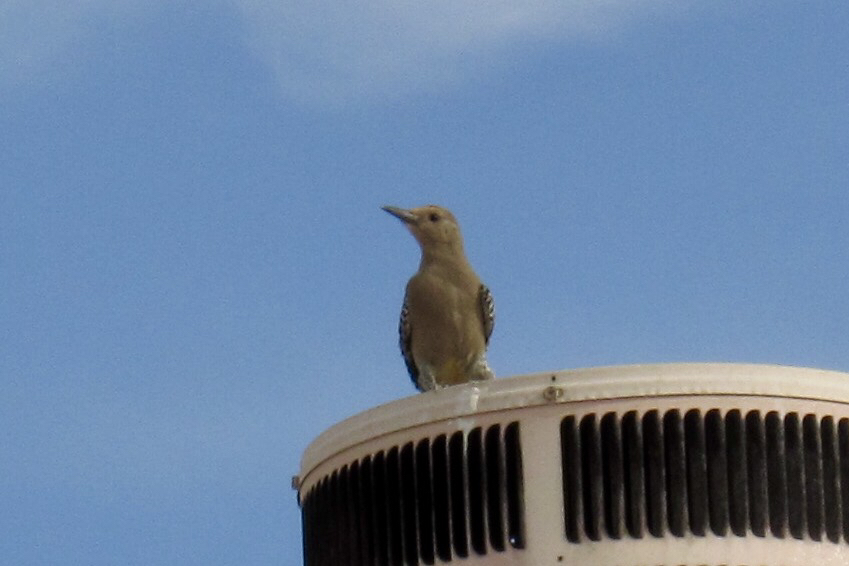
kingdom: Animalia
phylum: Chordata
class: Aves
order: Piciformes
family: Picidae
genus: Melanerpes
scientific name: Melanerpes uropygialis
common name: Gila woodpecker
